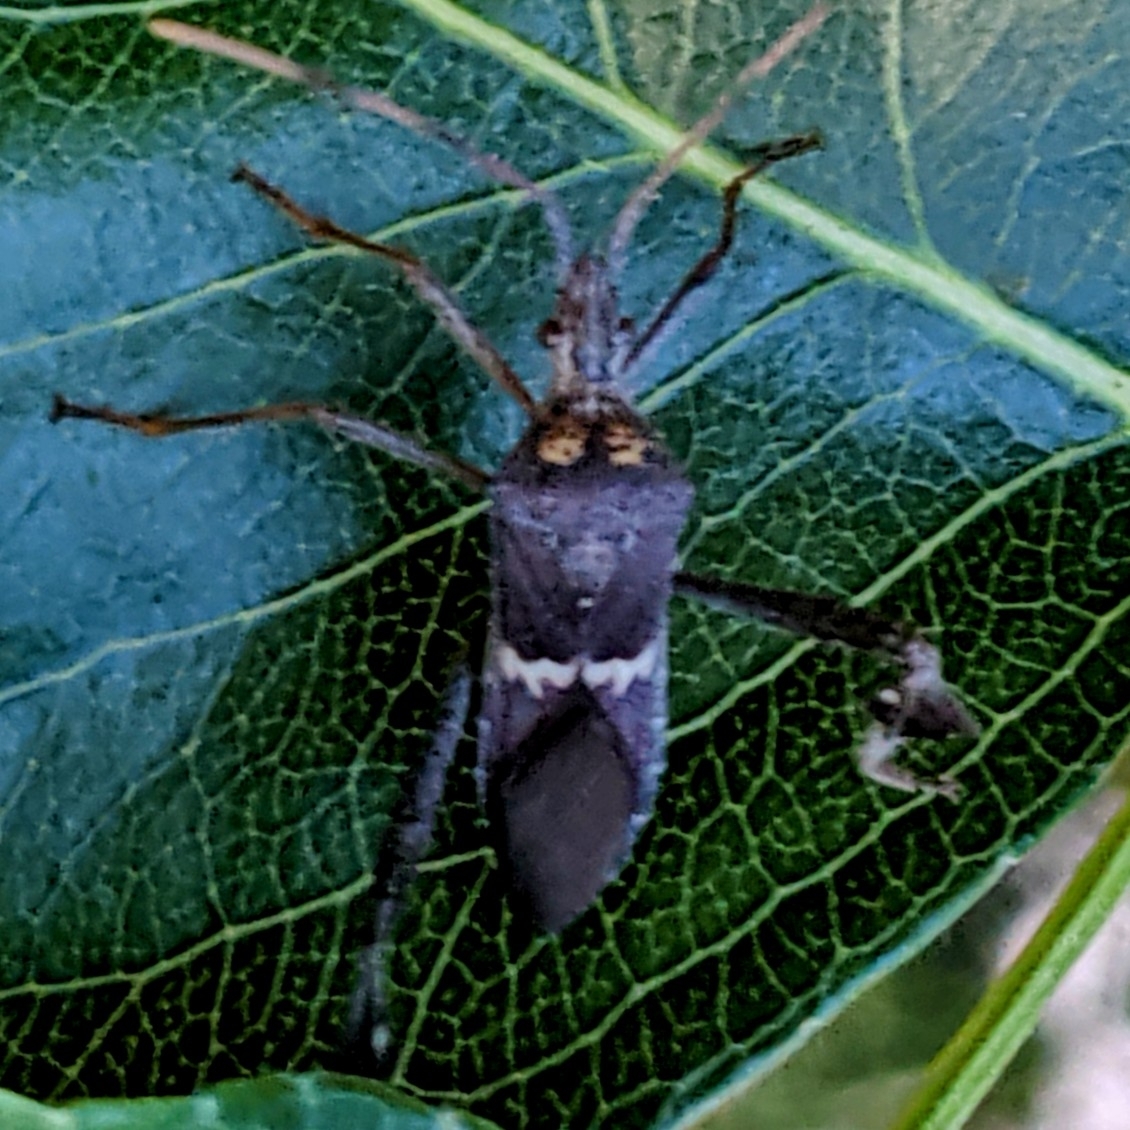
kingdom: Animalia
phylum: Arthropoda
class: Insecta
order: Hemiptera
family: Coreidae
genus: Leptoglossus
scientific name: Leptoglossus zonatus
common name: Large-legged bug
